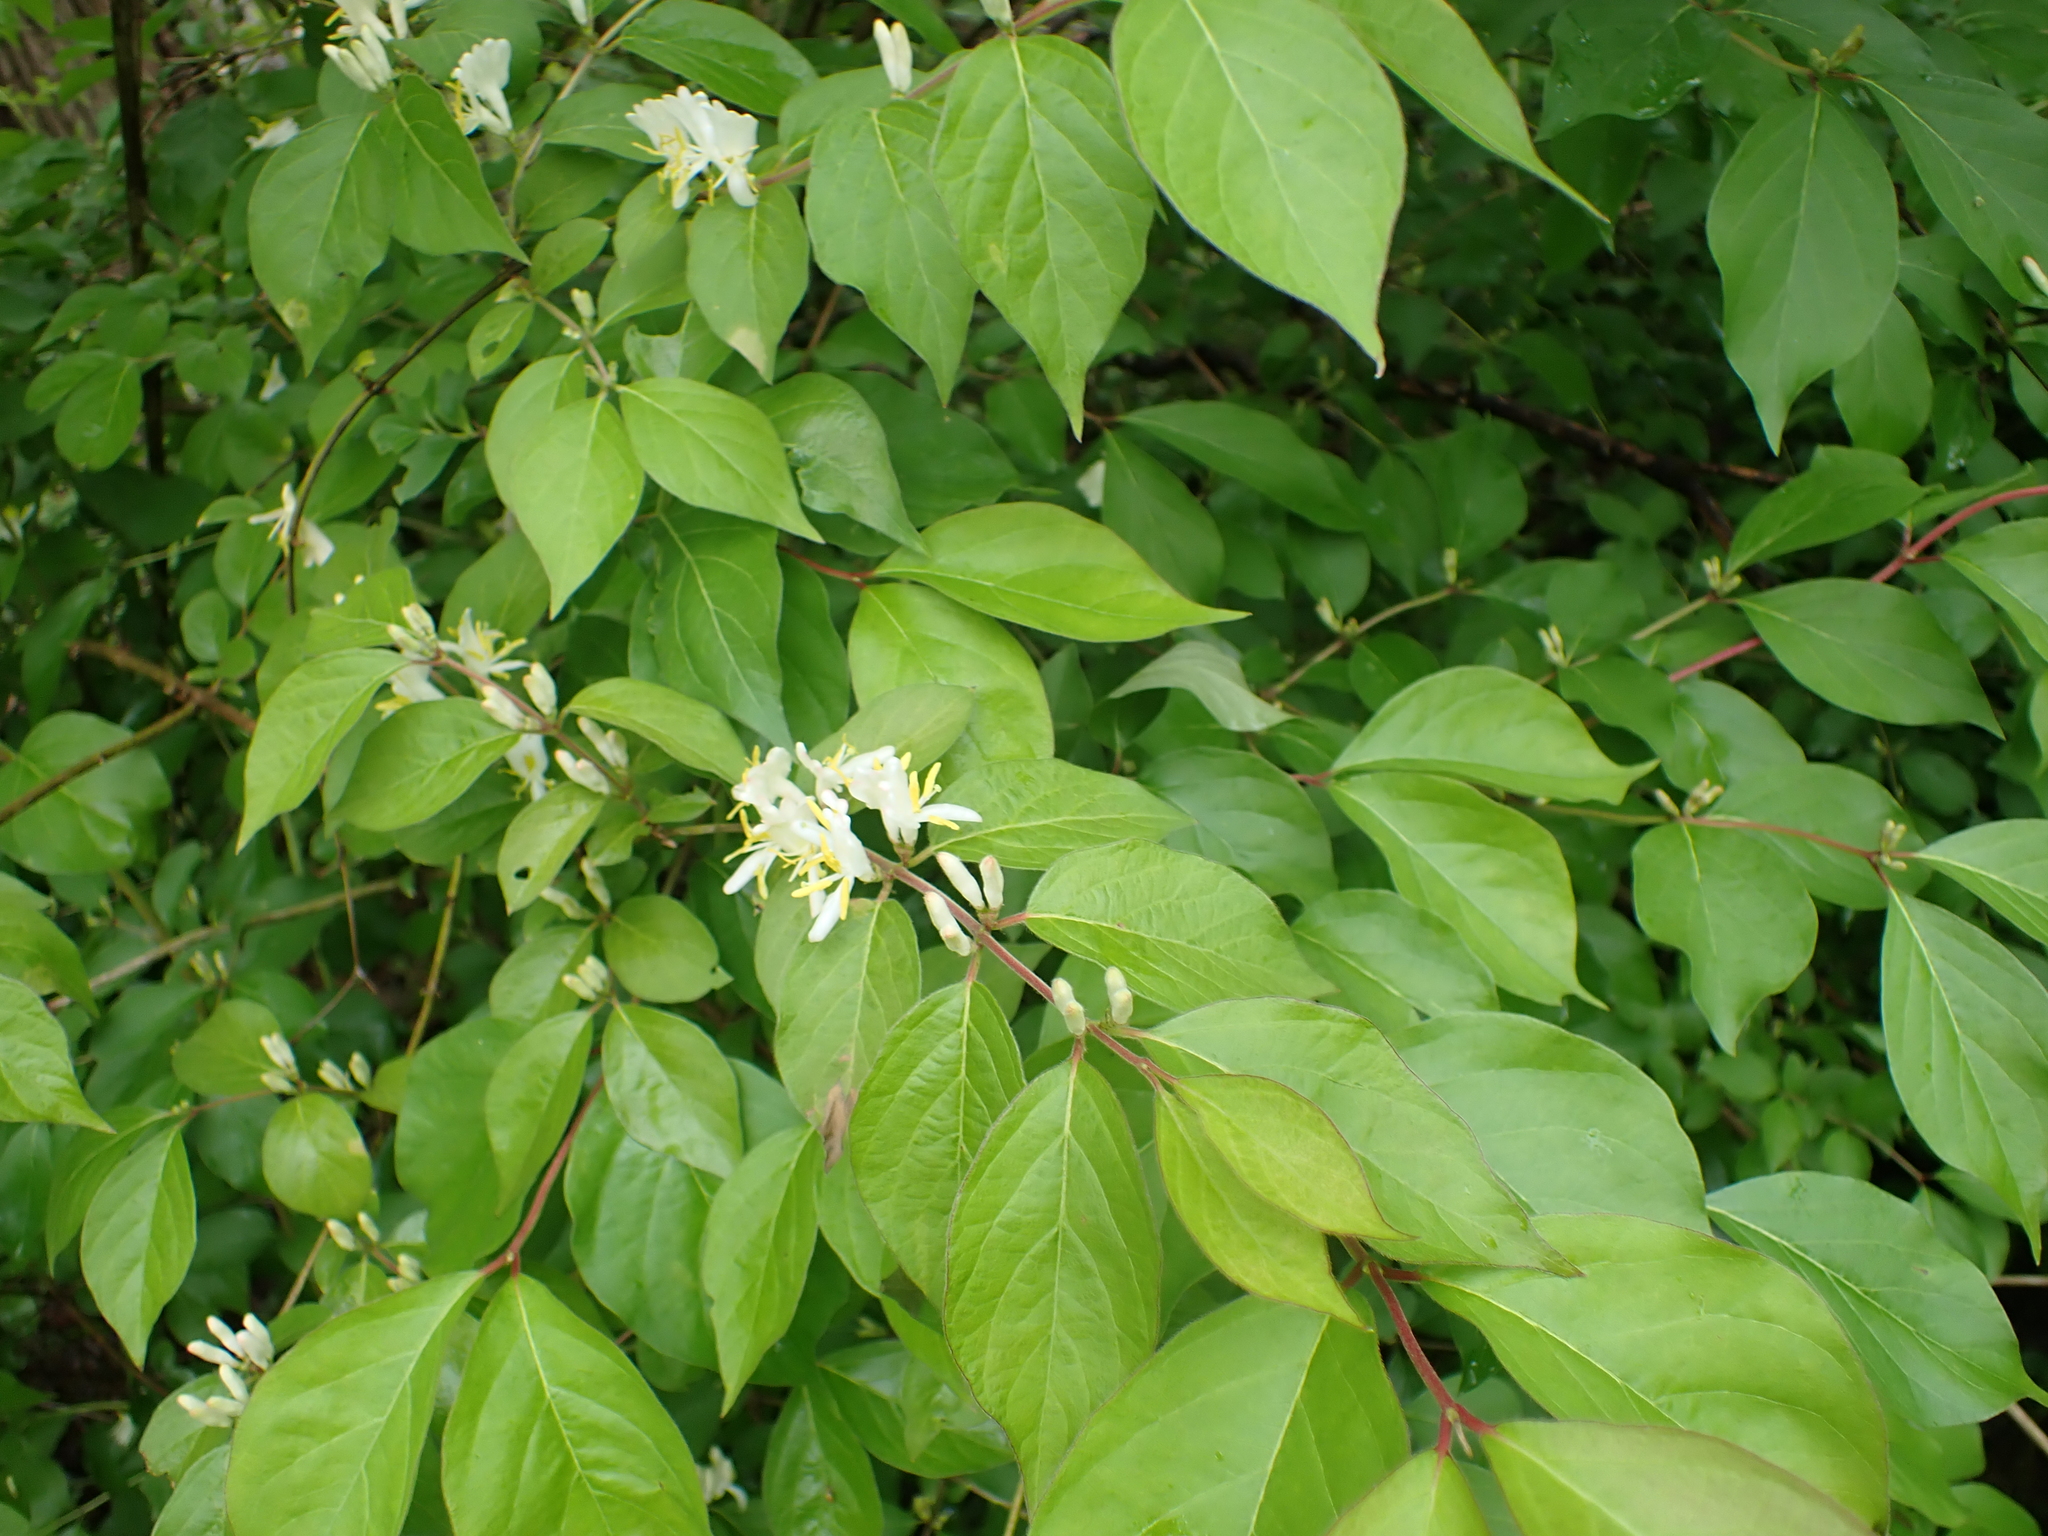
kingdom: Plantae
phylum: Tracheophyta
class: Magnoliopsida
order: Dipsacales
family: Caprifoliaceae
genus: Lonicera
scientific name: Lonicera maackii
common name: Amur honeysuckle
